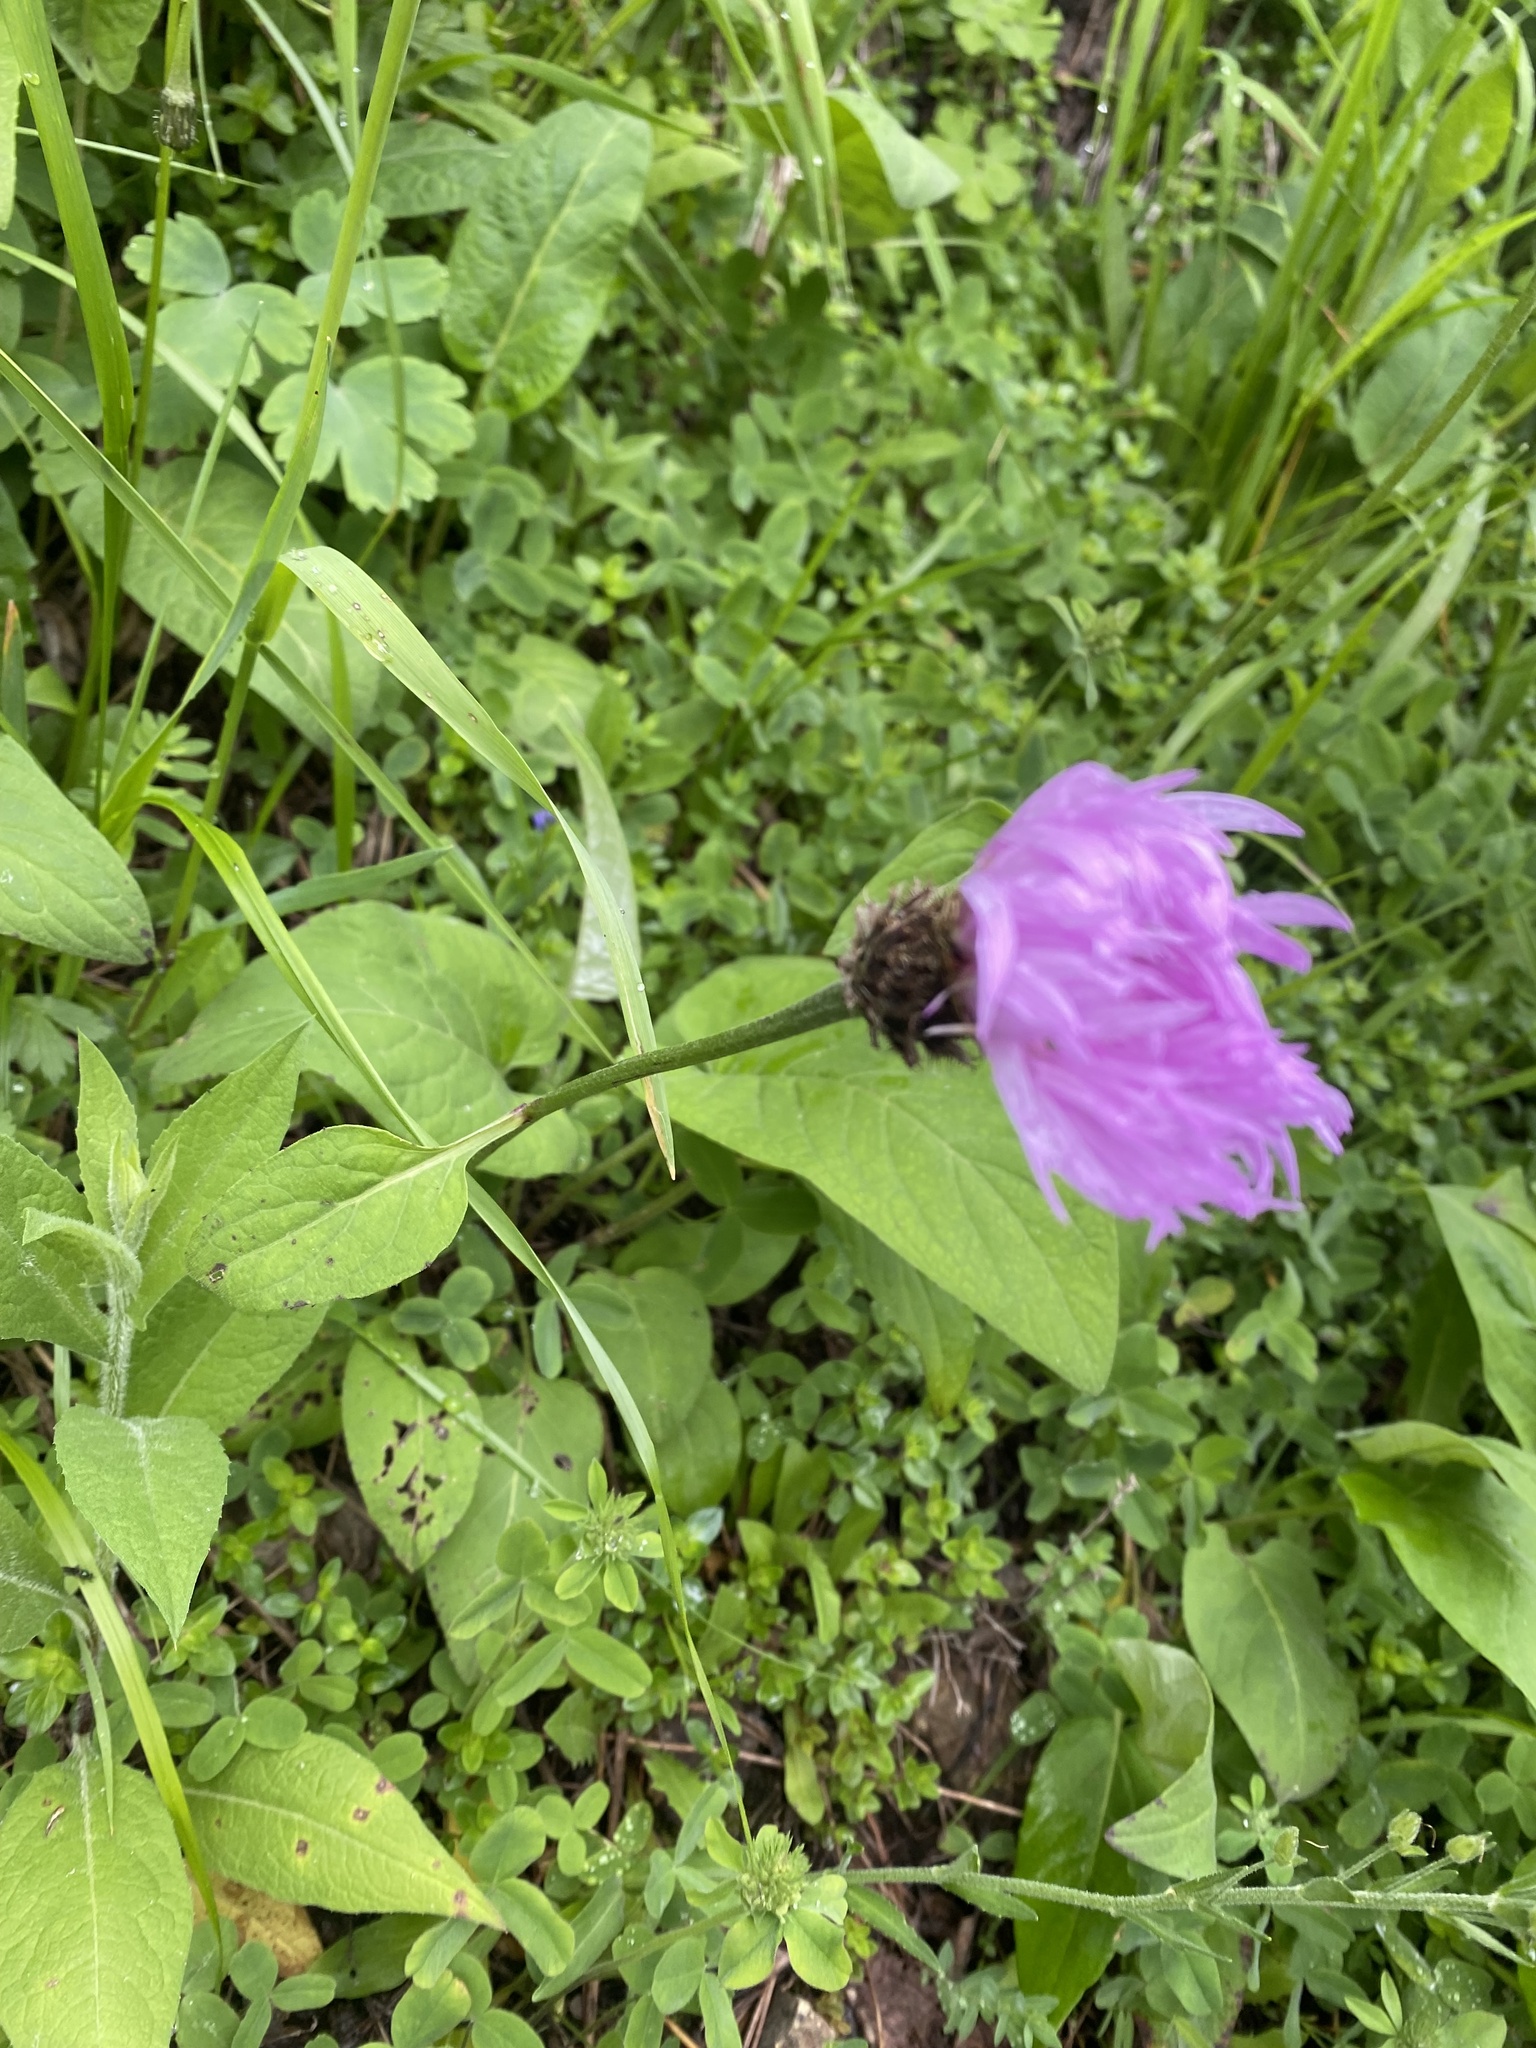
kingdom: Plantae
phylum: Tracheophyta
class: Magnoliopsida
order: Asterales
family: Asteraceae
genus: Psephellus
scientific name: Psephellus dealbatus
